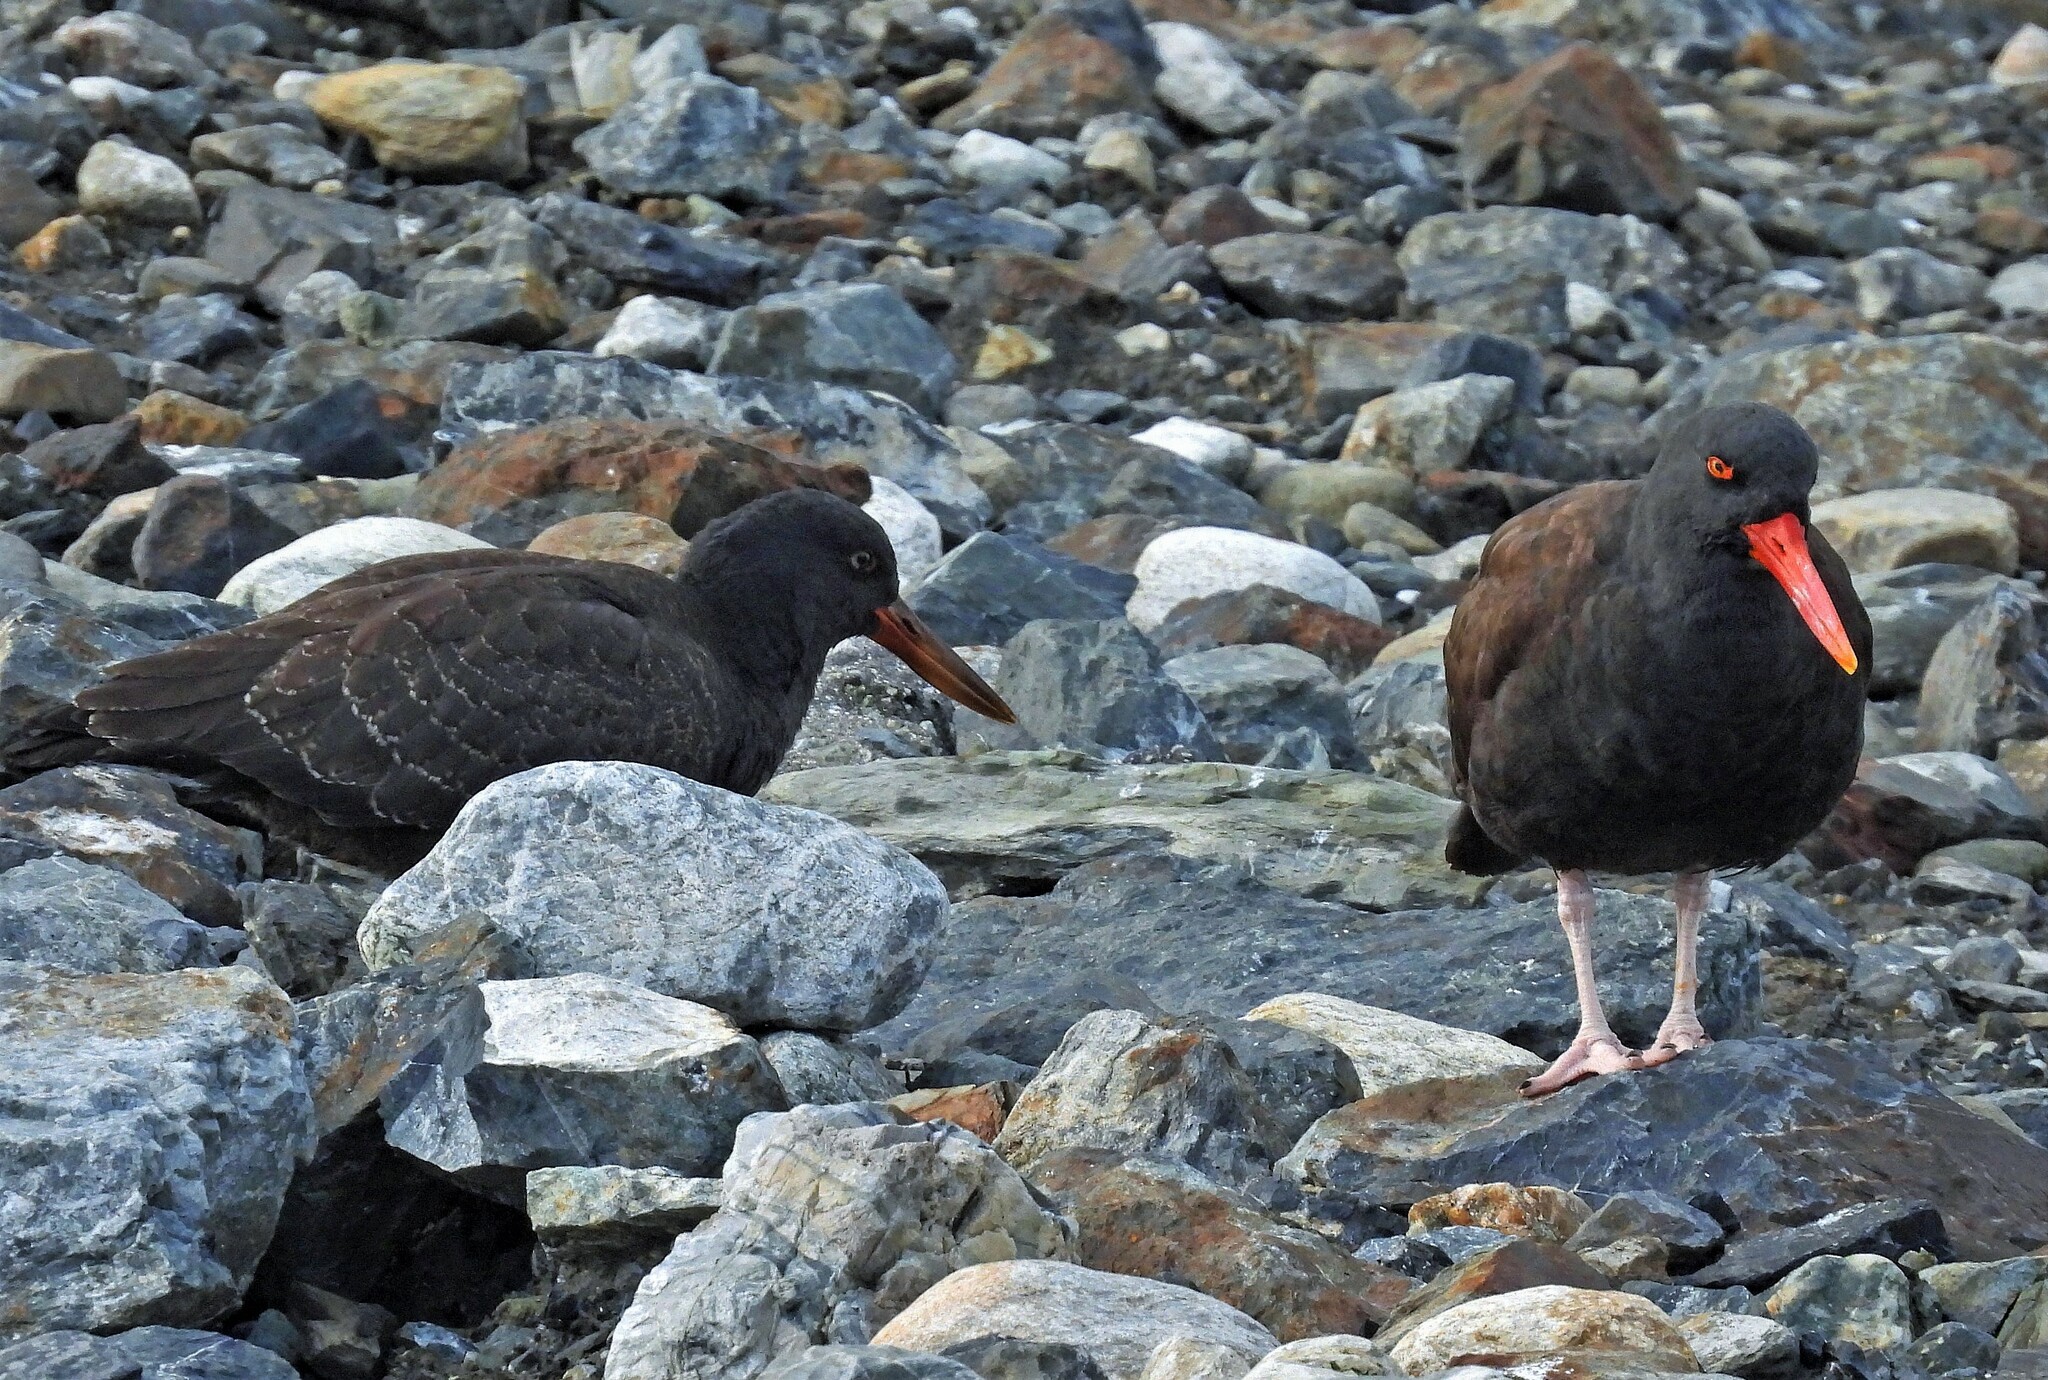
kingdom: Animalia
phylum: Chordata
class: Aves
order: Charadriiformes
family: Haematopodidae
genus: Haematopus
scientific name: Haematopus ater
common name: Blackish oystercatcher
